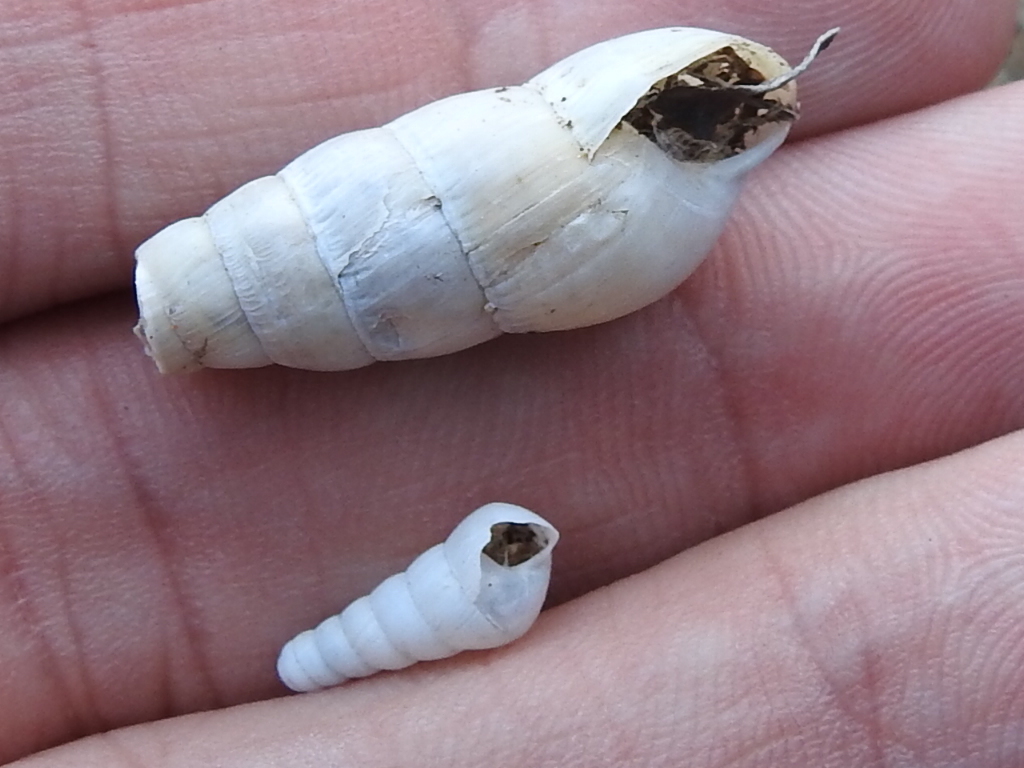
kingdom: Animalia
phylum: Mollusca
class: Gastropoda
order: Stylommatophora
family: Achatinidae
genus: Rumina
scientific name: Rumina decollata
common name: Decollate snail
